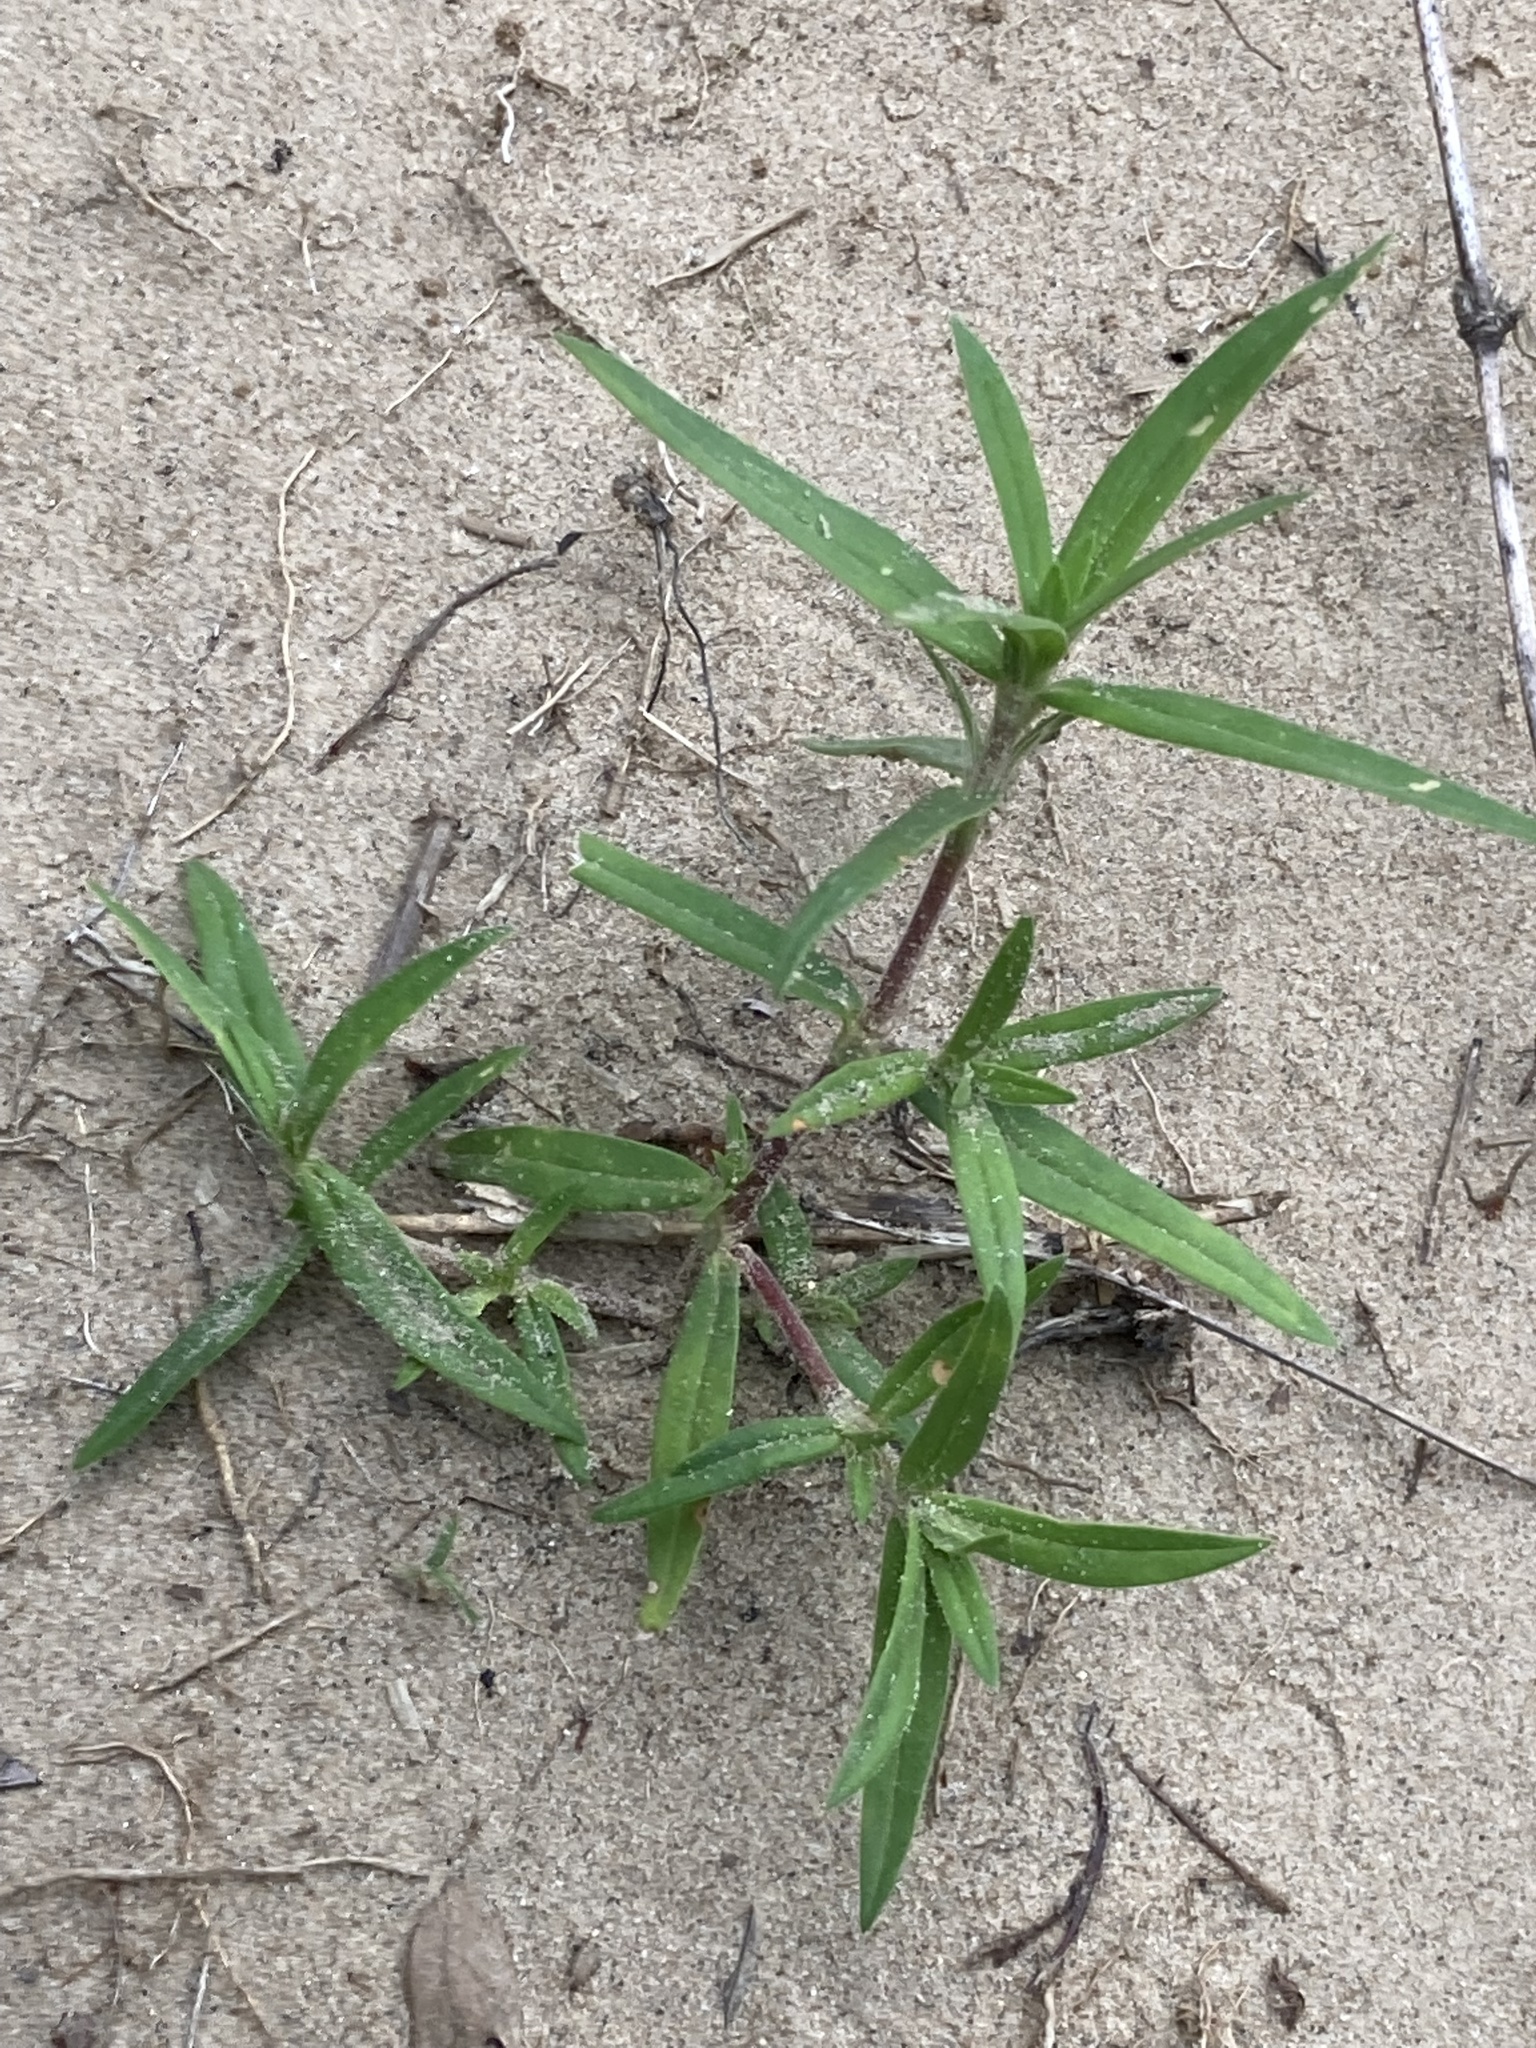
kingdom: Plantae
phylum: Tracheophyta
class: Magnoliopsida
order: Gentianales
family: Rubiaceae
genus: Hexasepalum
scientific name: Hexasepalum teres
